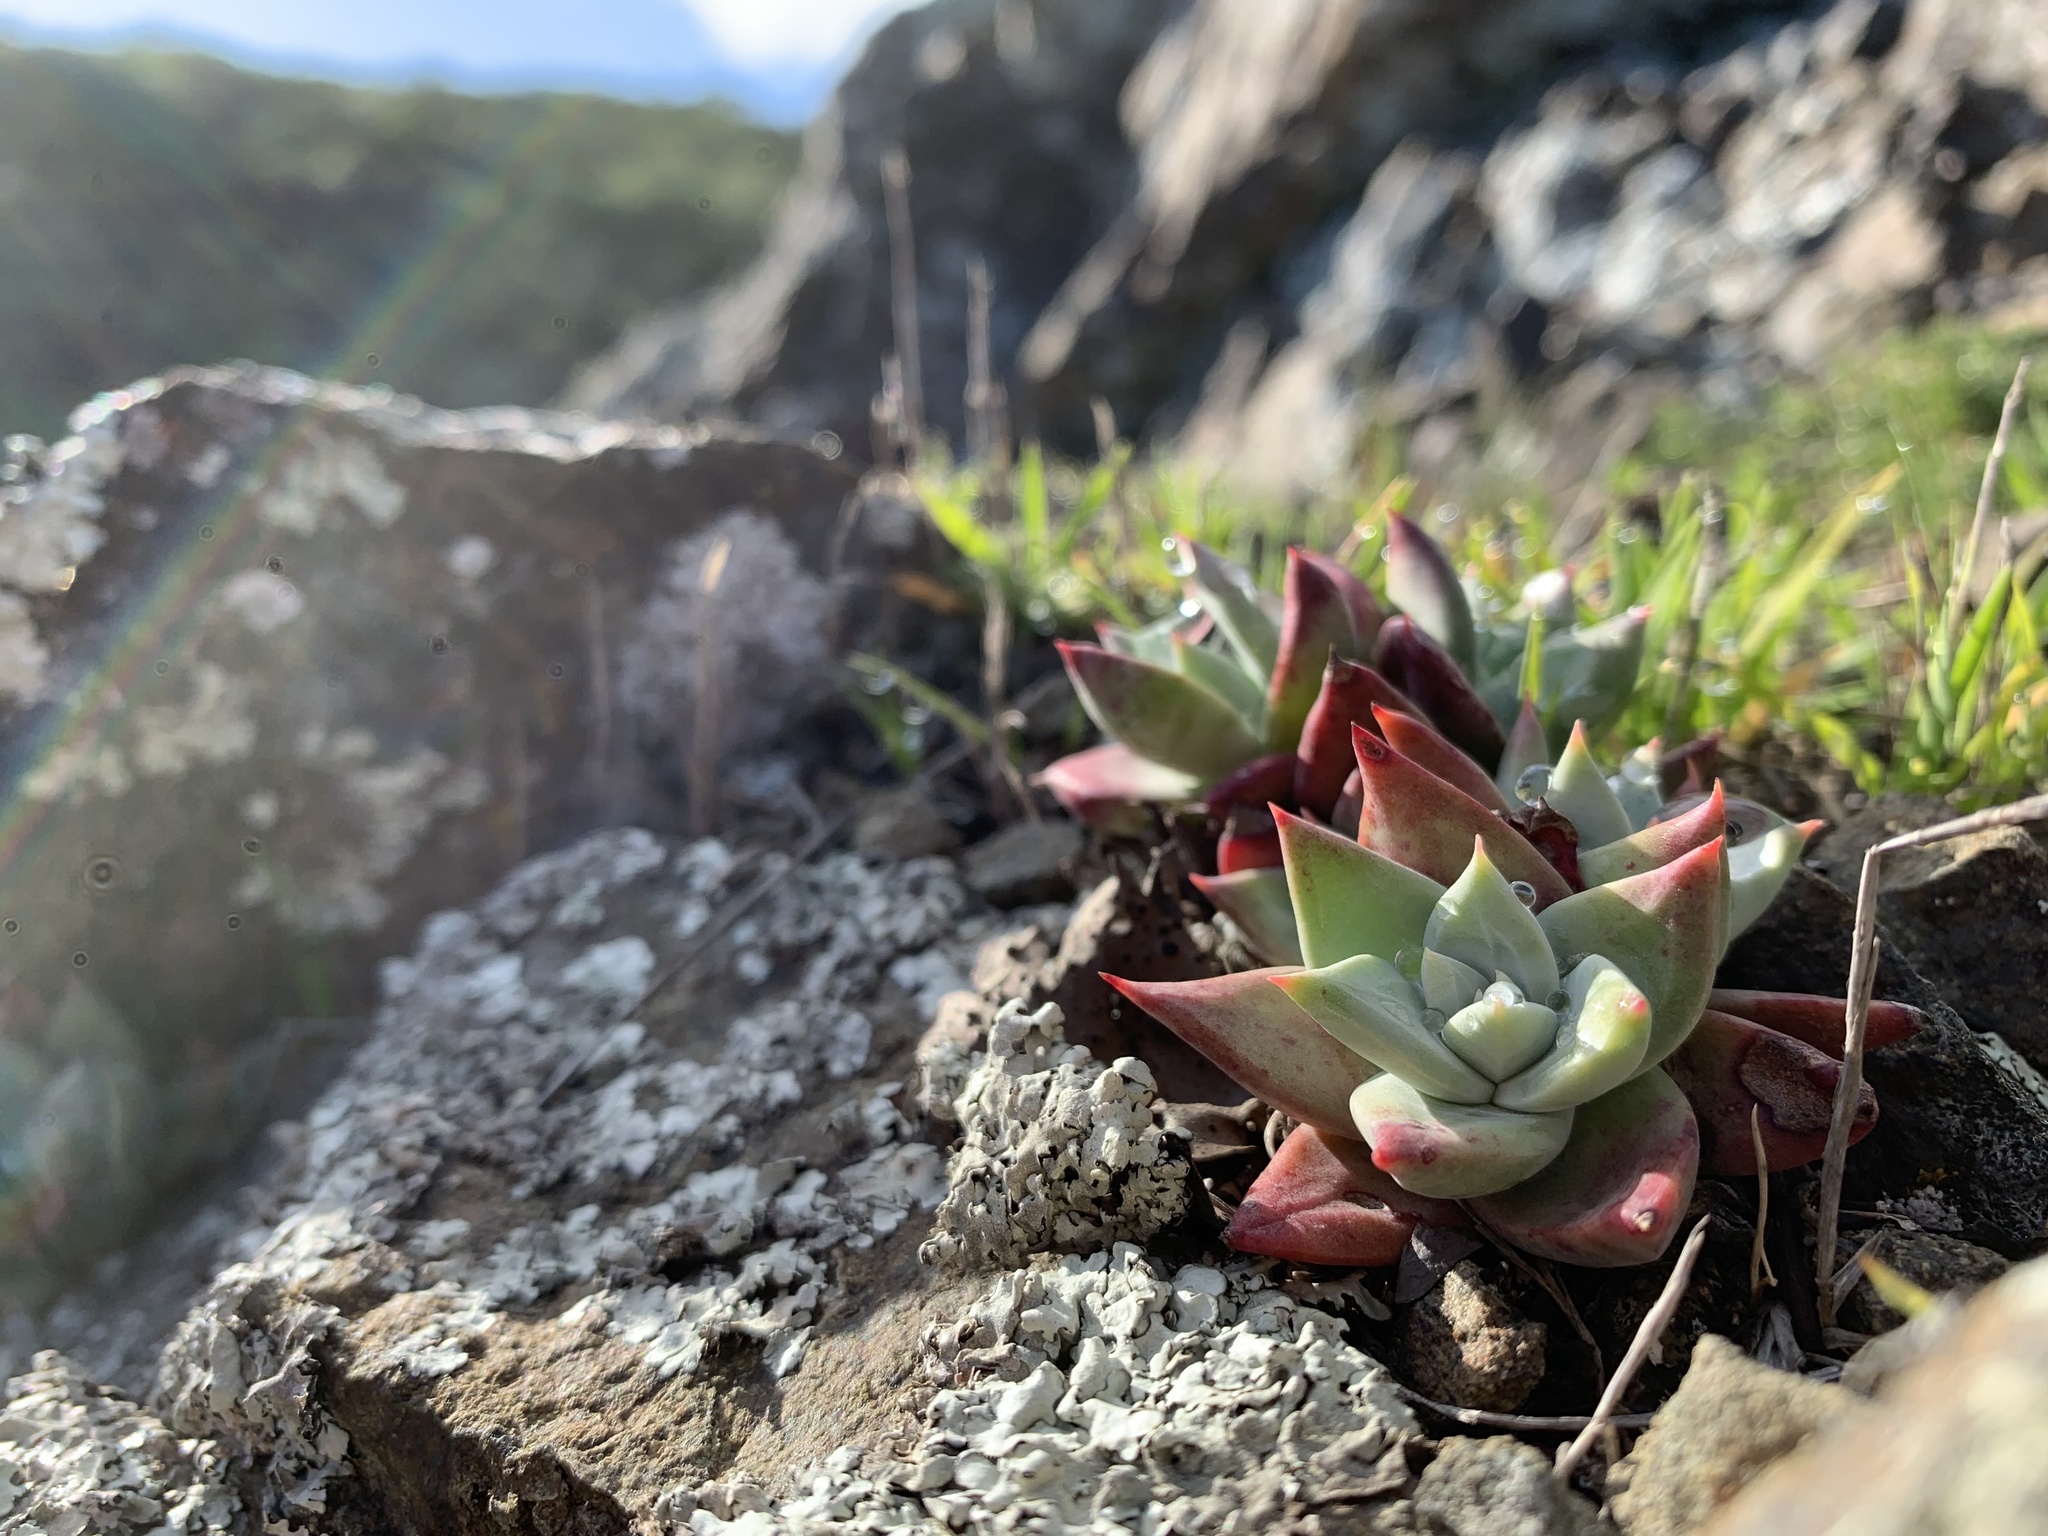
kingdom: Plantae
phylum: Tracheophyta
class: Magnoliopsida
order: Saxifragales
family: Crassulaceae
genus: Dudleya
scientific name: Dudleya farinosa
